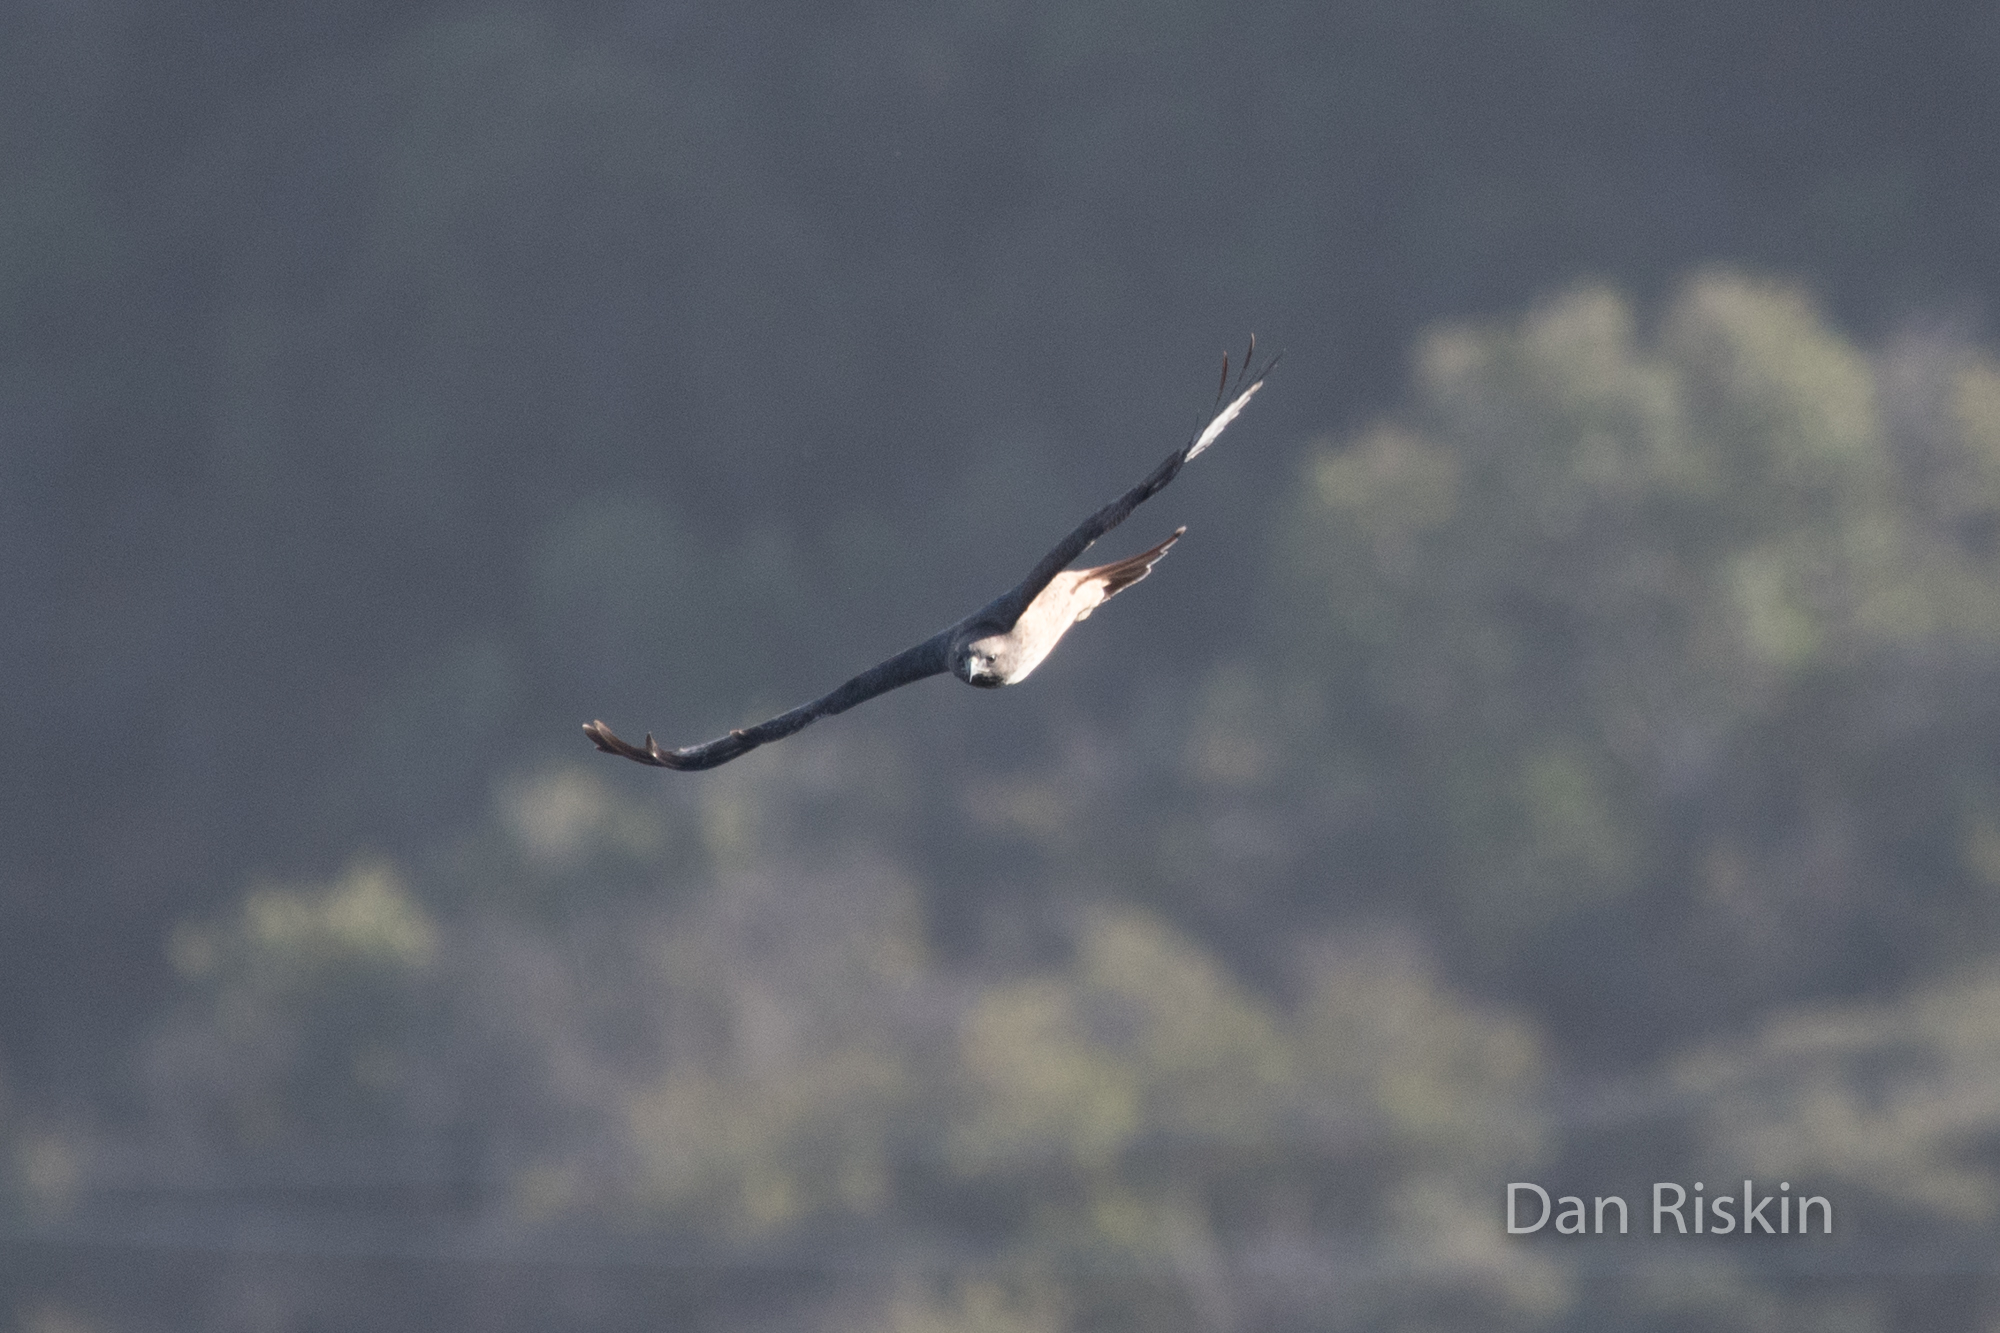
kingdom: Animalia
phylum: Chordata
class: Aves
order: Accipitriformes
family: Accipitridae
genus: Buteo
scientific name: Buteo jamaicensis
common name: Red-tailed hawk
